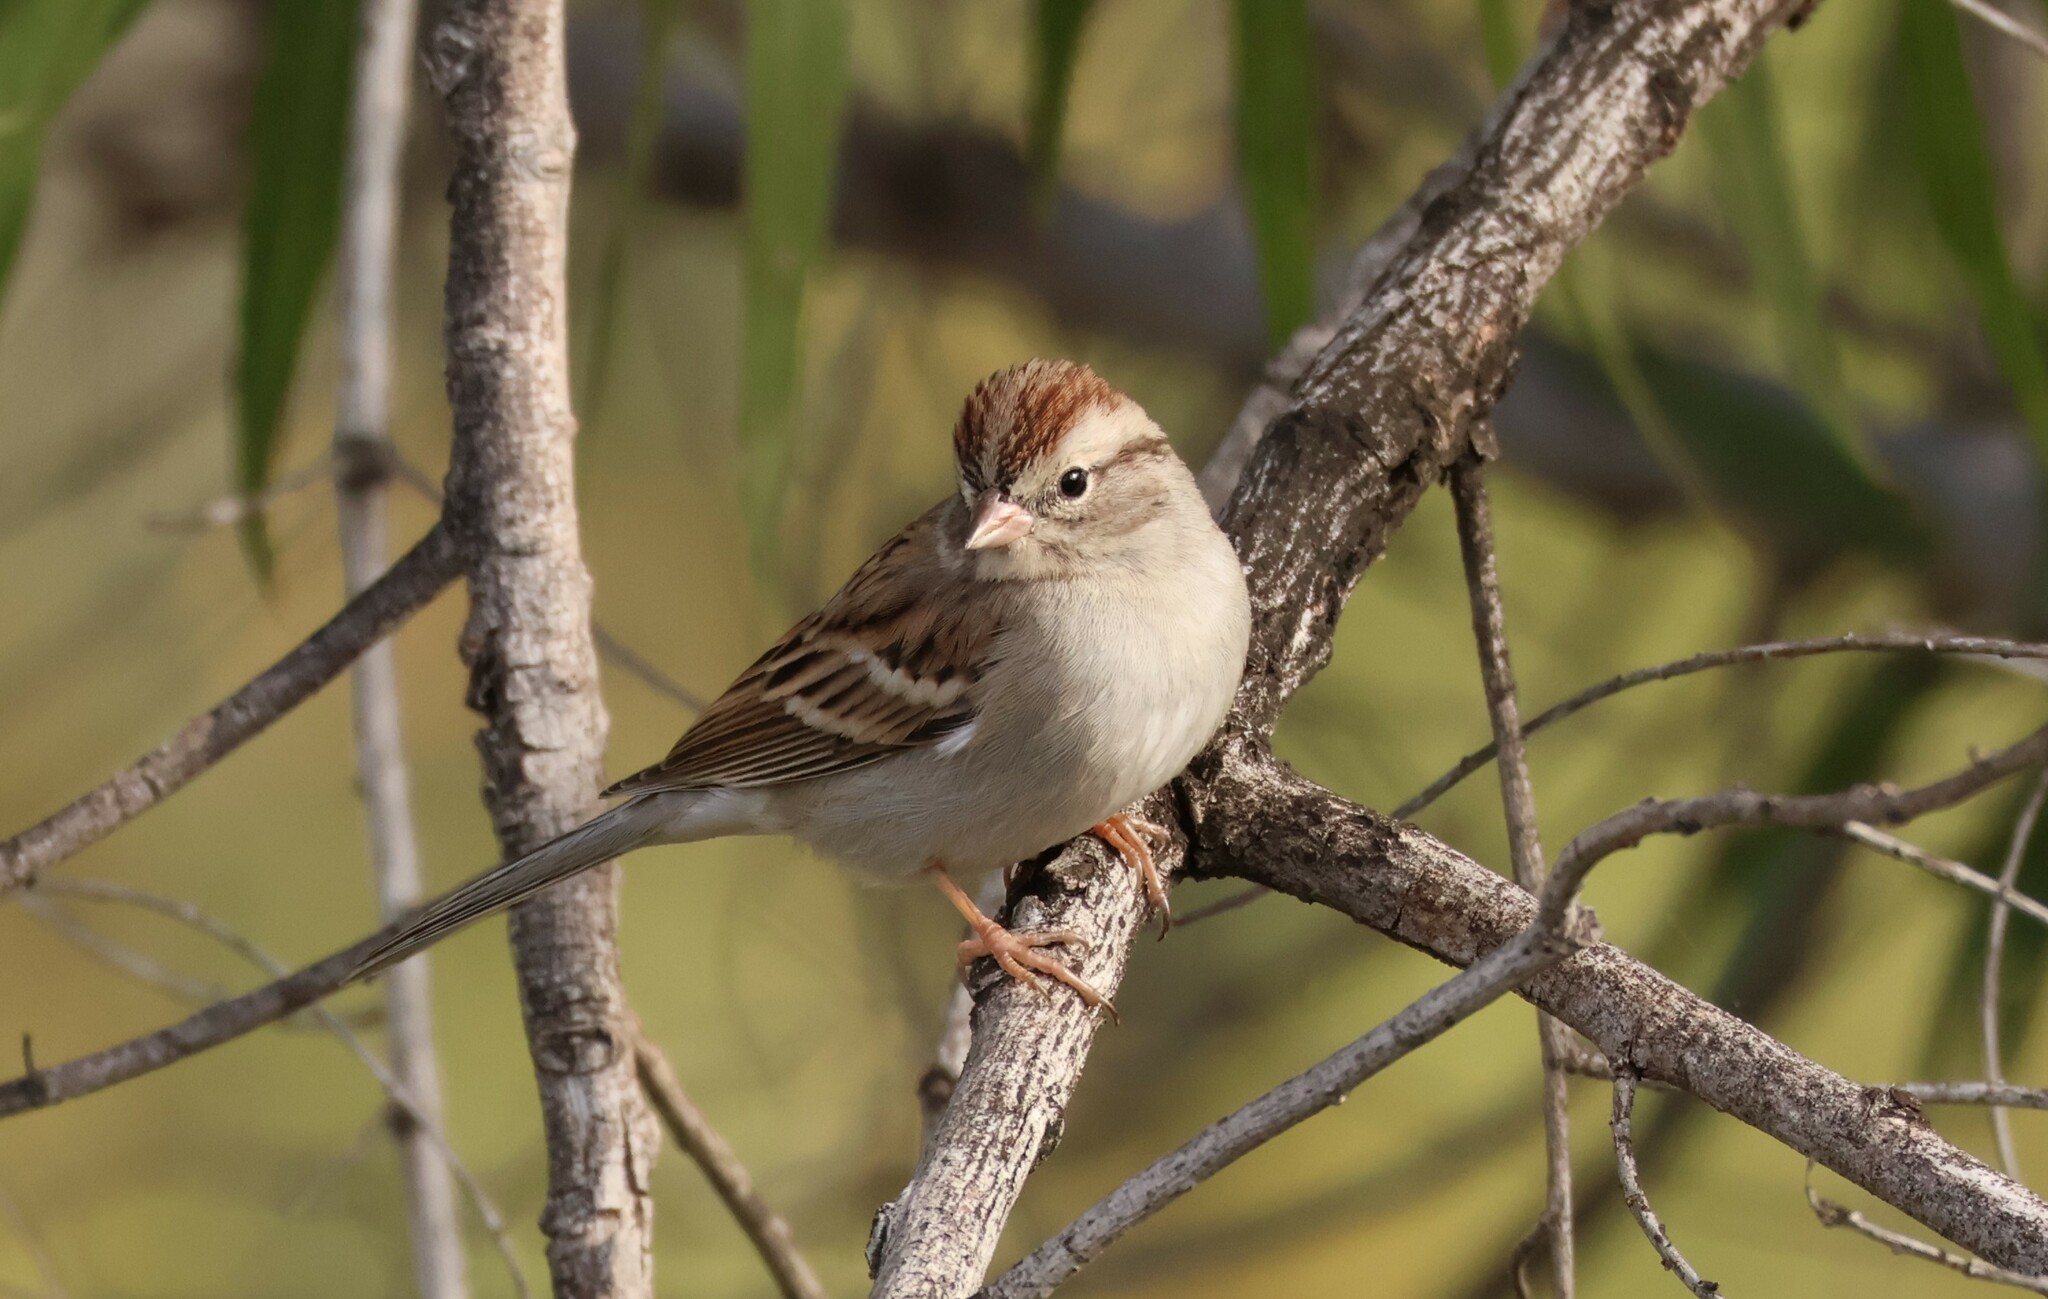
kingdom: Animalia
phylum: Chordata
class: Aves
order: Passeriformes
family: Passerellidae
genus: Spizella
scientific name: Spizella passerina
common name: Chipping sparrow
